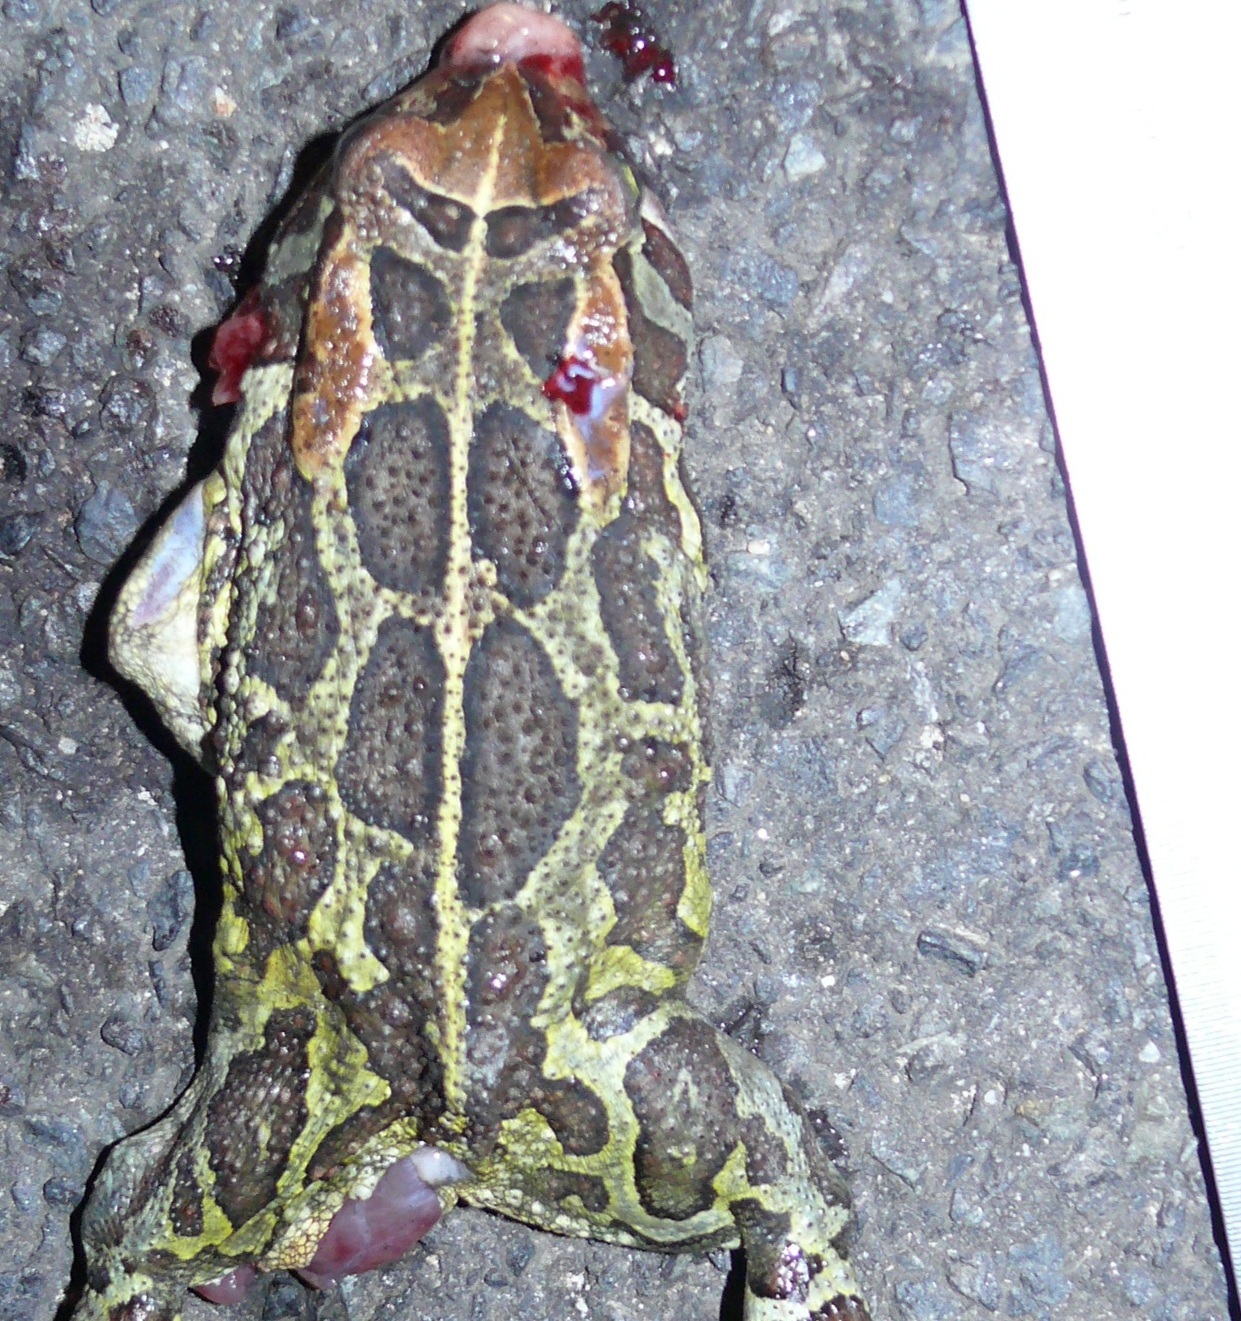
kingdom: Animalia
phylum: Chordata
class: Amphibia
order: Anura
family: Bufonidae
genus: Sclerophrys
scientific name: Sclerophrys pantherina
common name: Panther toad
